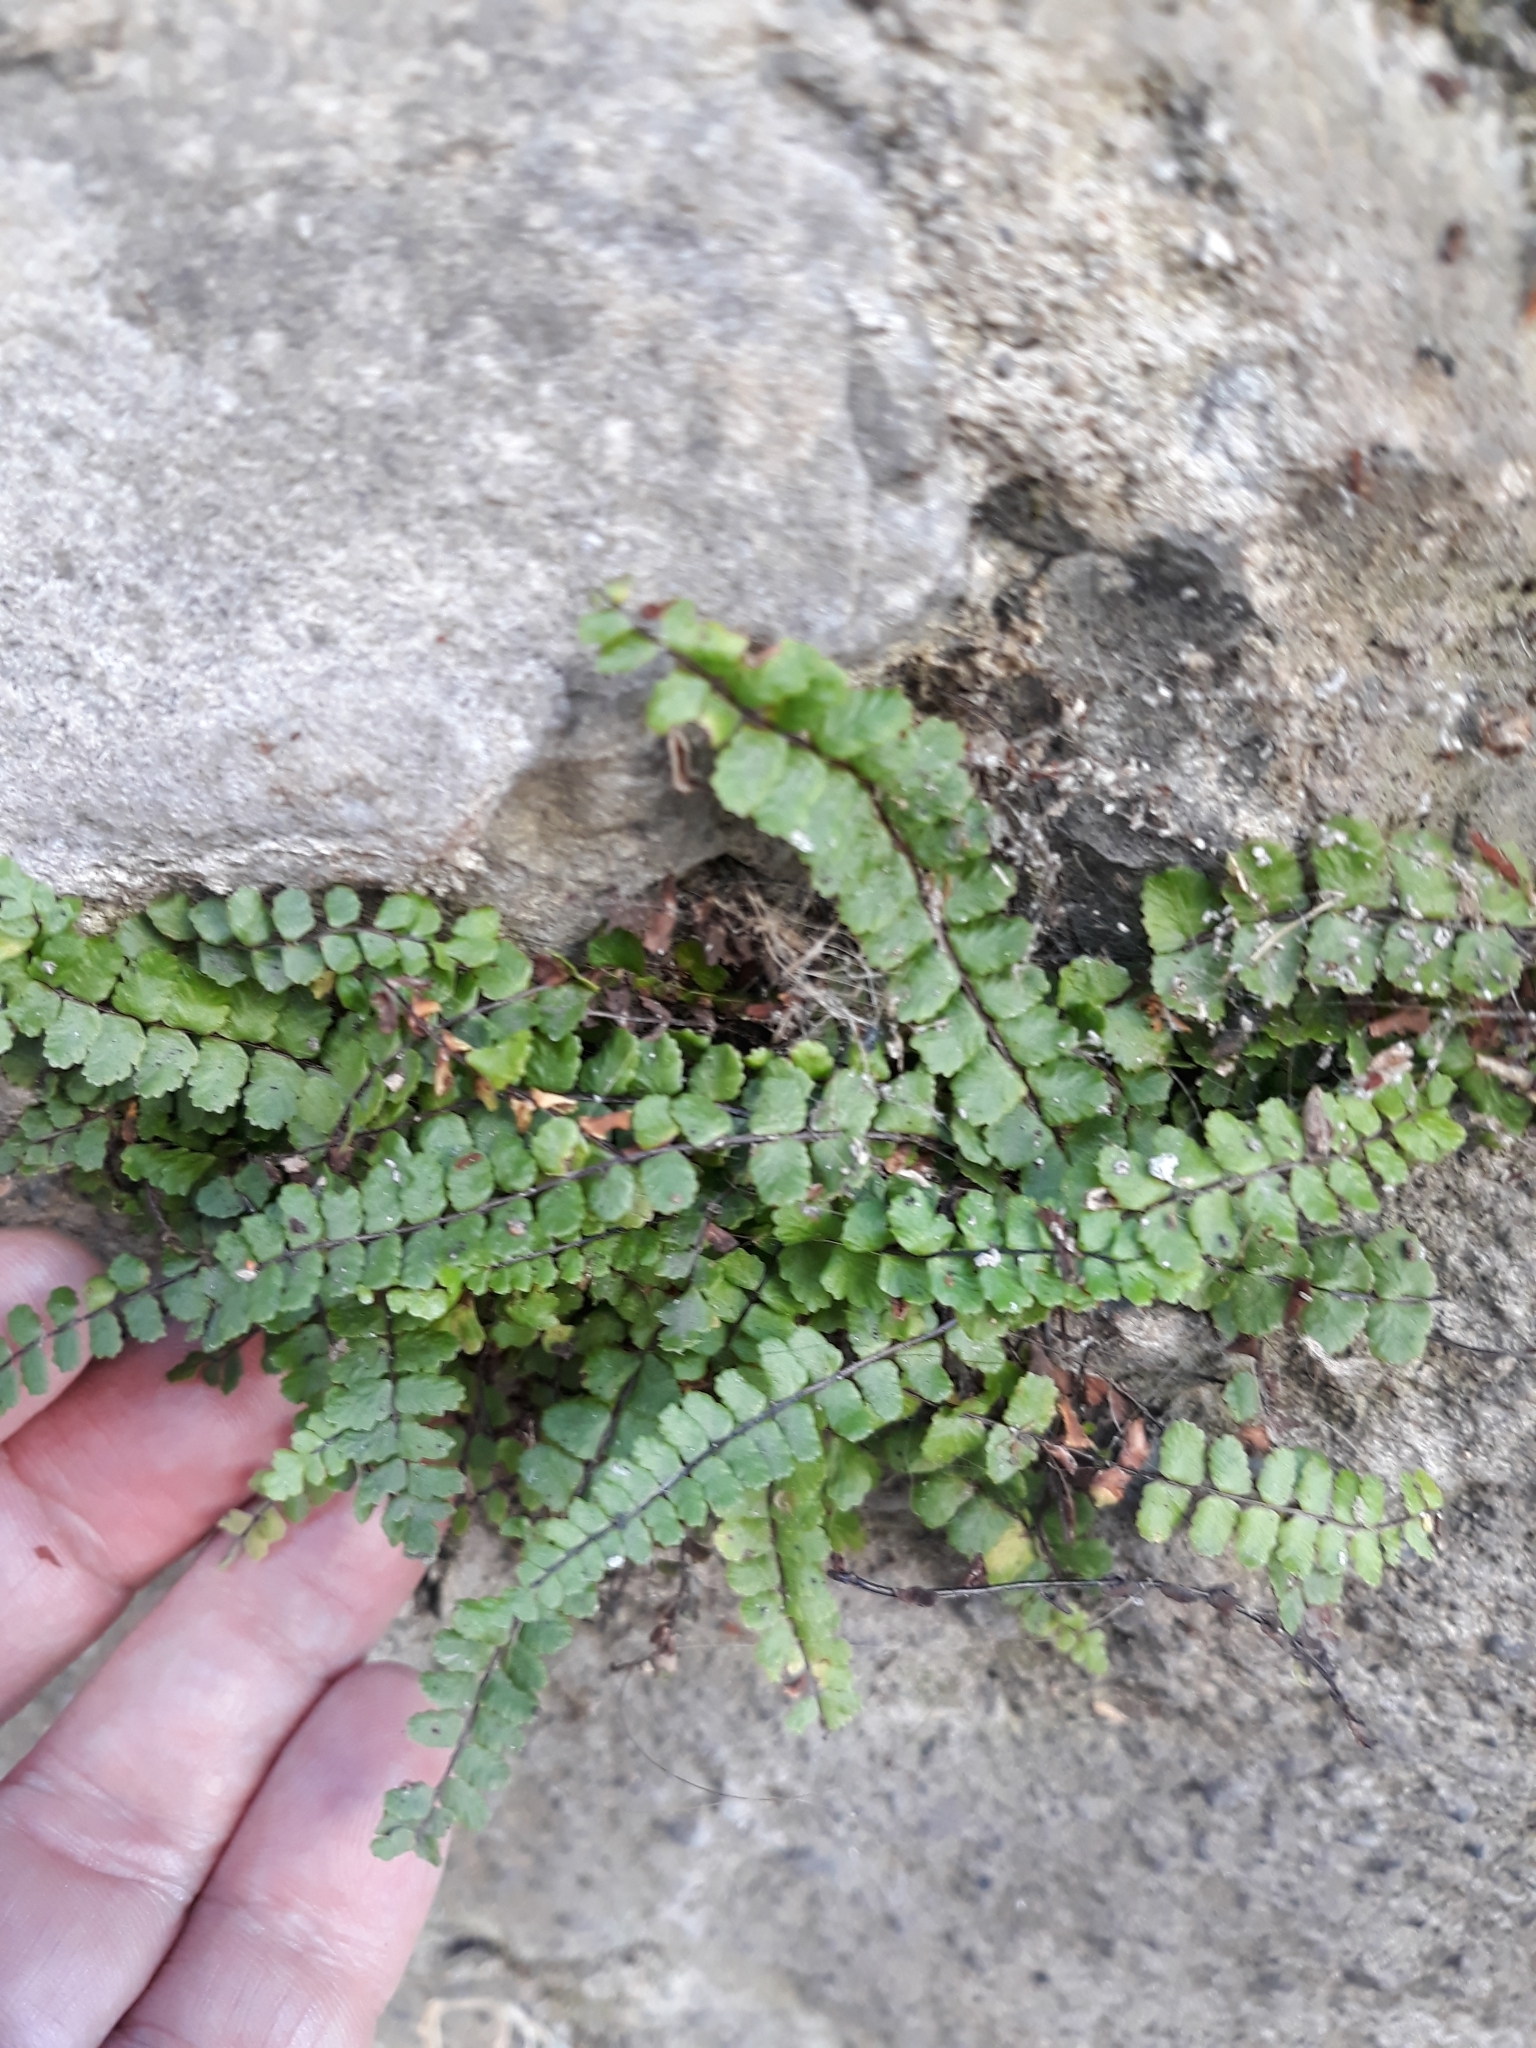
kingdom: Plantae
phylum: Tracheophyta
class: Polypodiopsida
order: Polypodiales
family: Aspleniaceae
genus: Asplenium
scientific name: Asplenium trichomanes
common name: Maidenhair spleenwort
